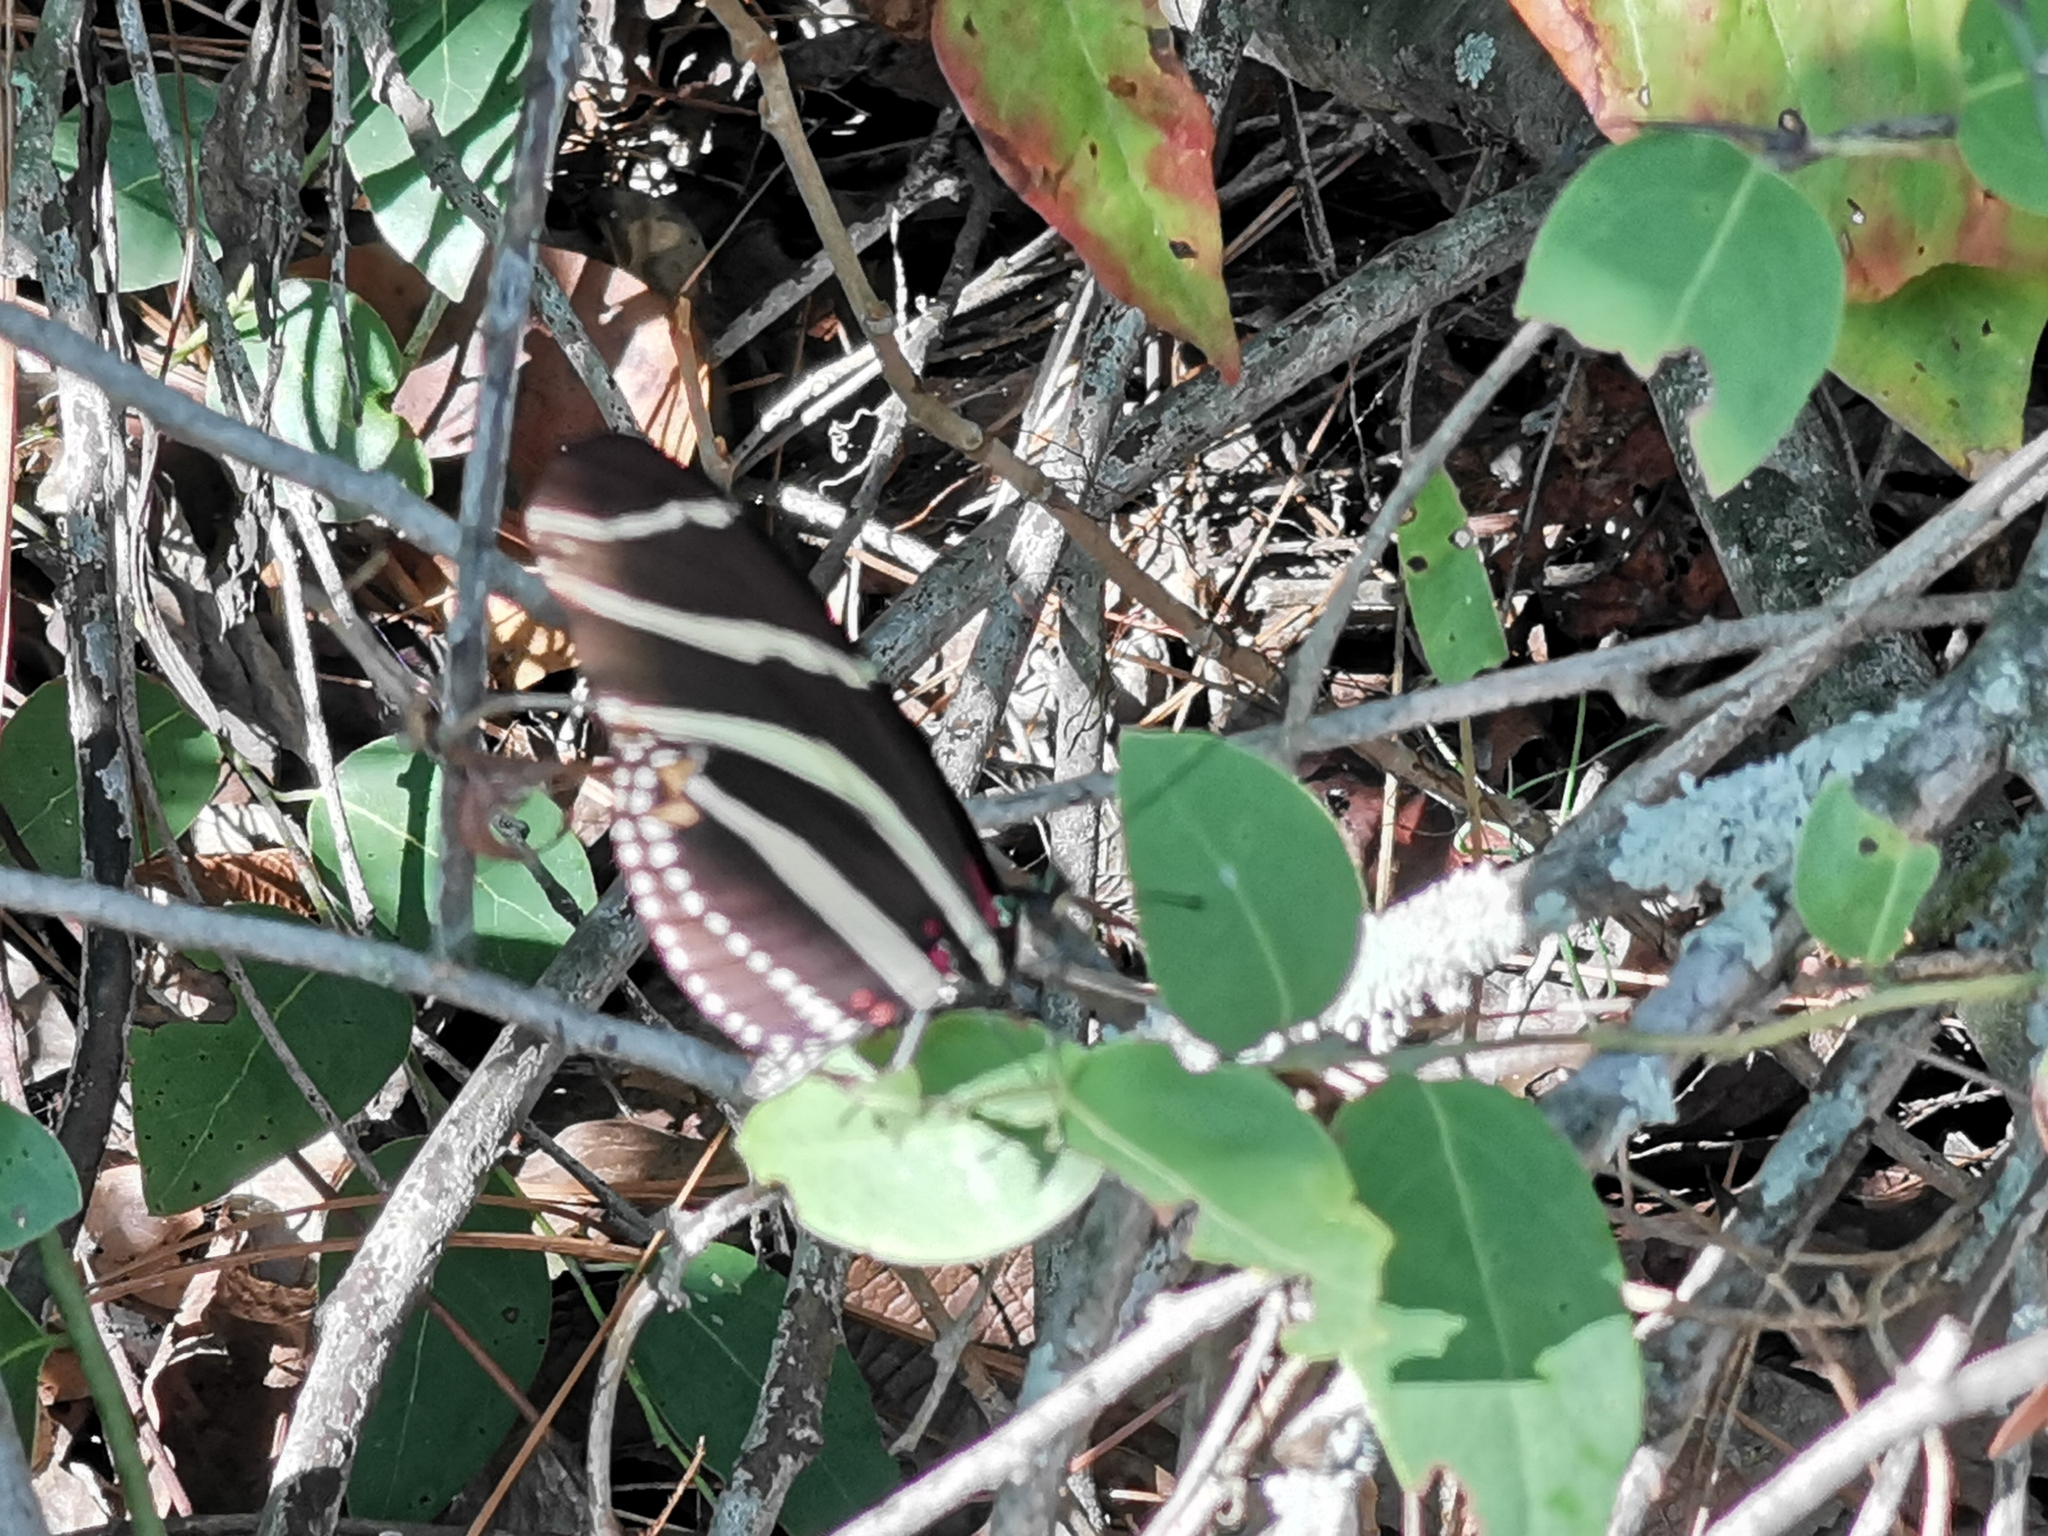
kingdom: Animalia
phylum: Arthropoda
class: Insecta
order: Lepidoptera
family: Nymphalidae
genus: Heliconius
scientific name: Heliconius charithonia
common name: Zebra long wing
